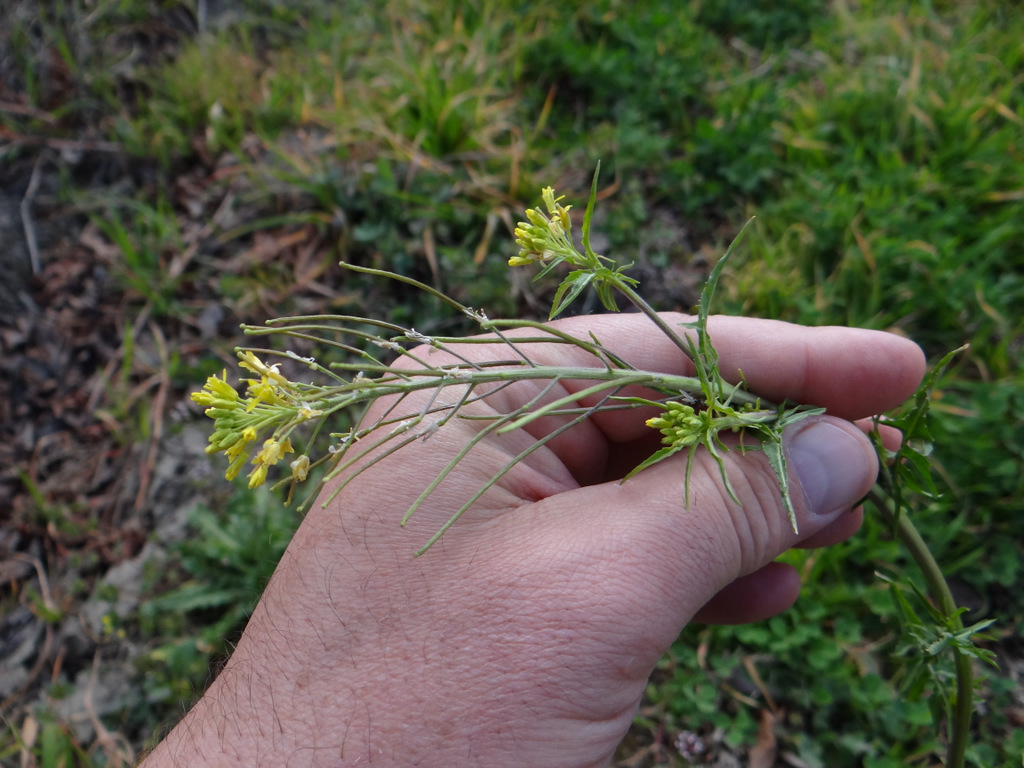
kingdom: Plantae
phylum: Tracheophyta
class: Magnoliopsida
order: Brassicales
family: Brassicaceae
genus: Sisymbrium
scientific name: Sisymbrium irio
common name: London rocket
